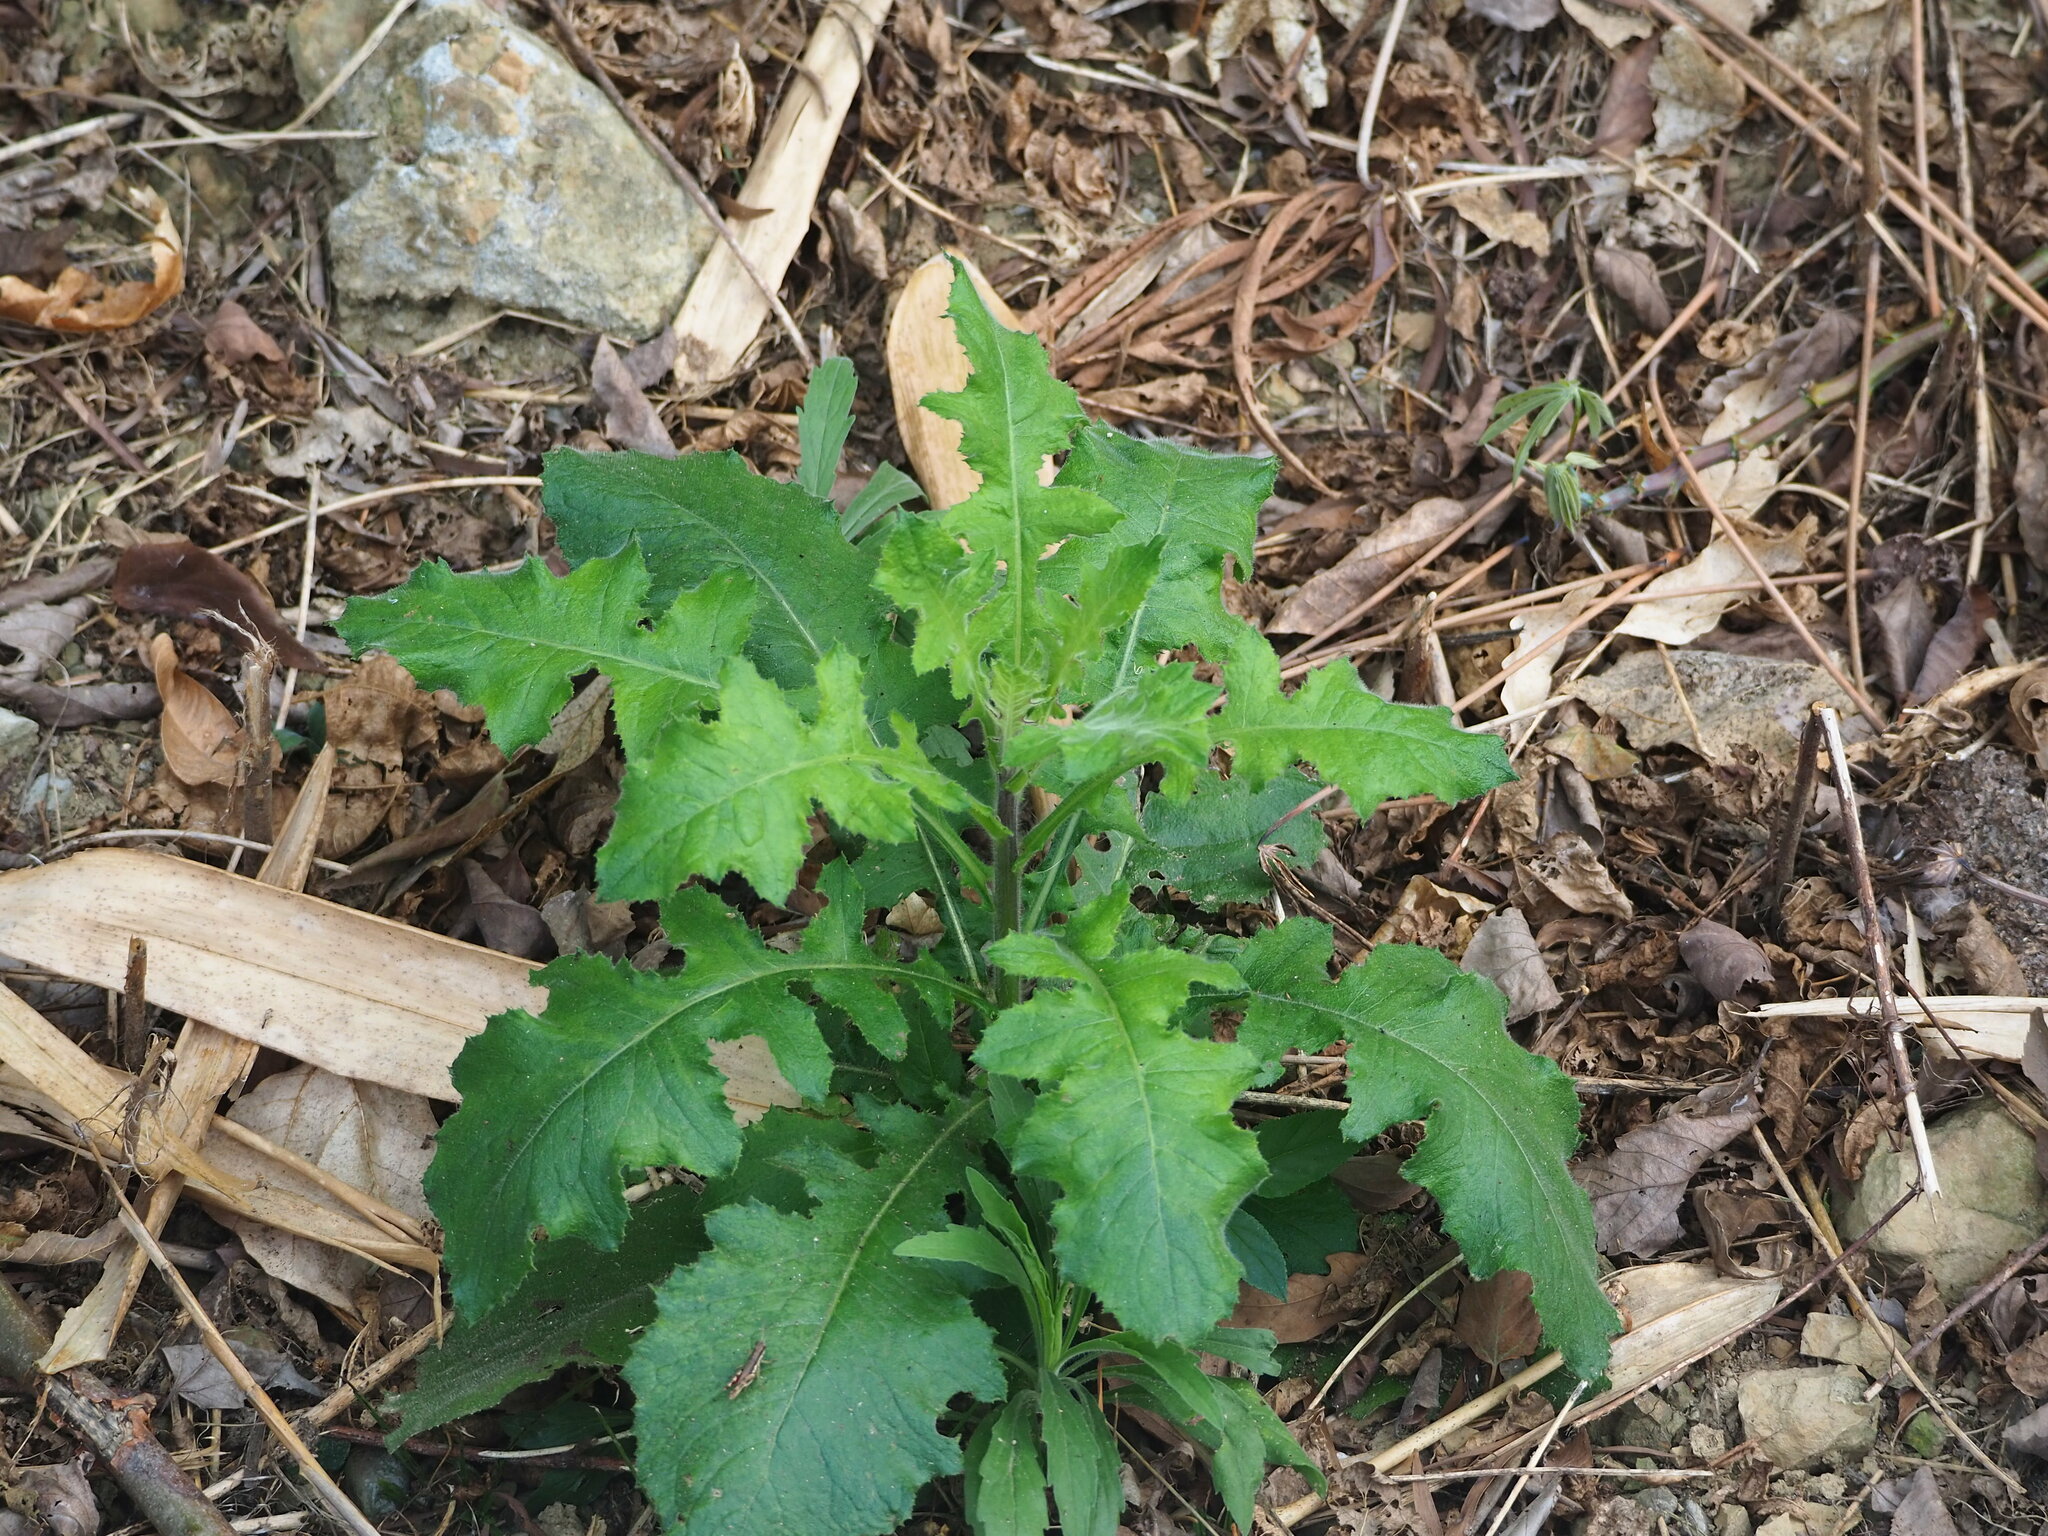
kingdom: Plantae
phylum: Tracheophyta
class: Magnoliopsida
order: Asterales
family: Asteraceae
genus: Blumea
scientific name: Blumea sinuata
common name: Cutleaf false oxtongue
